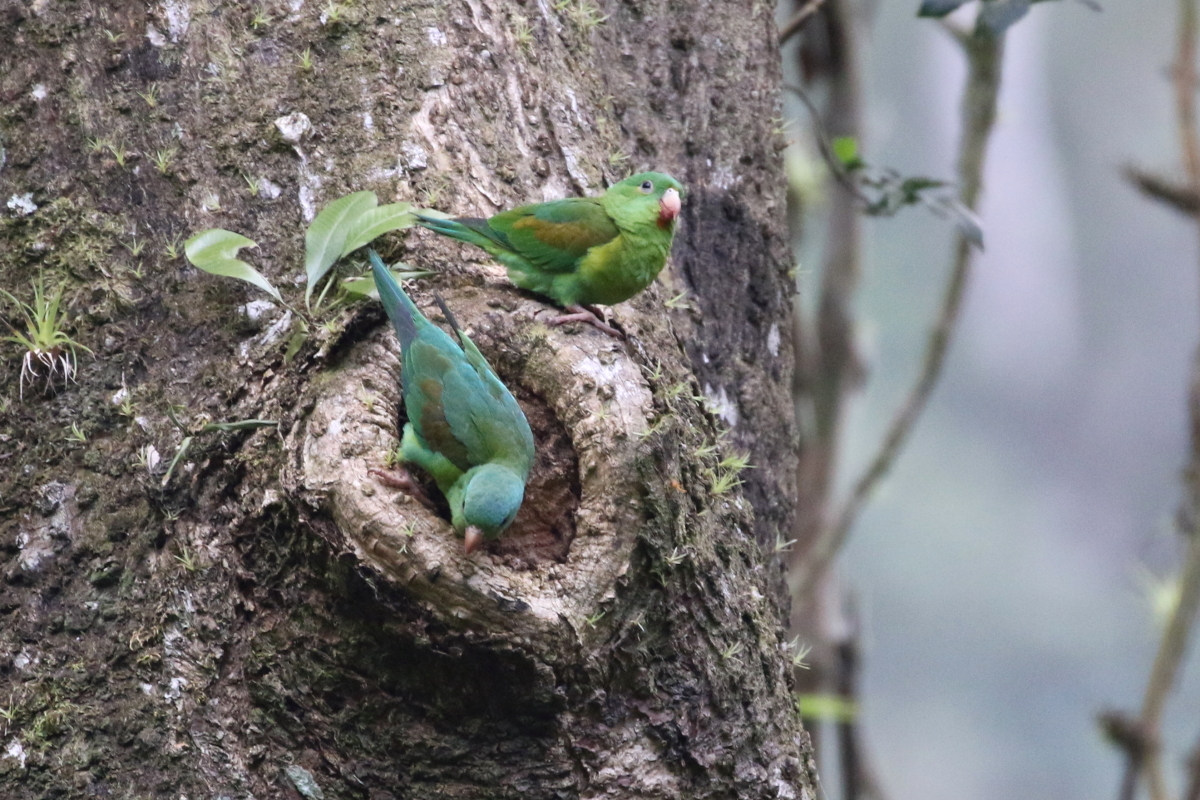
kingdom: Animalia
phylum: Chordata
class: Aves
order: Psittaciformes
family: Psittacidae
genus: Brotogeris
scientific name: Brotogeris jugularis
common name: Orange-chinned parakeet
